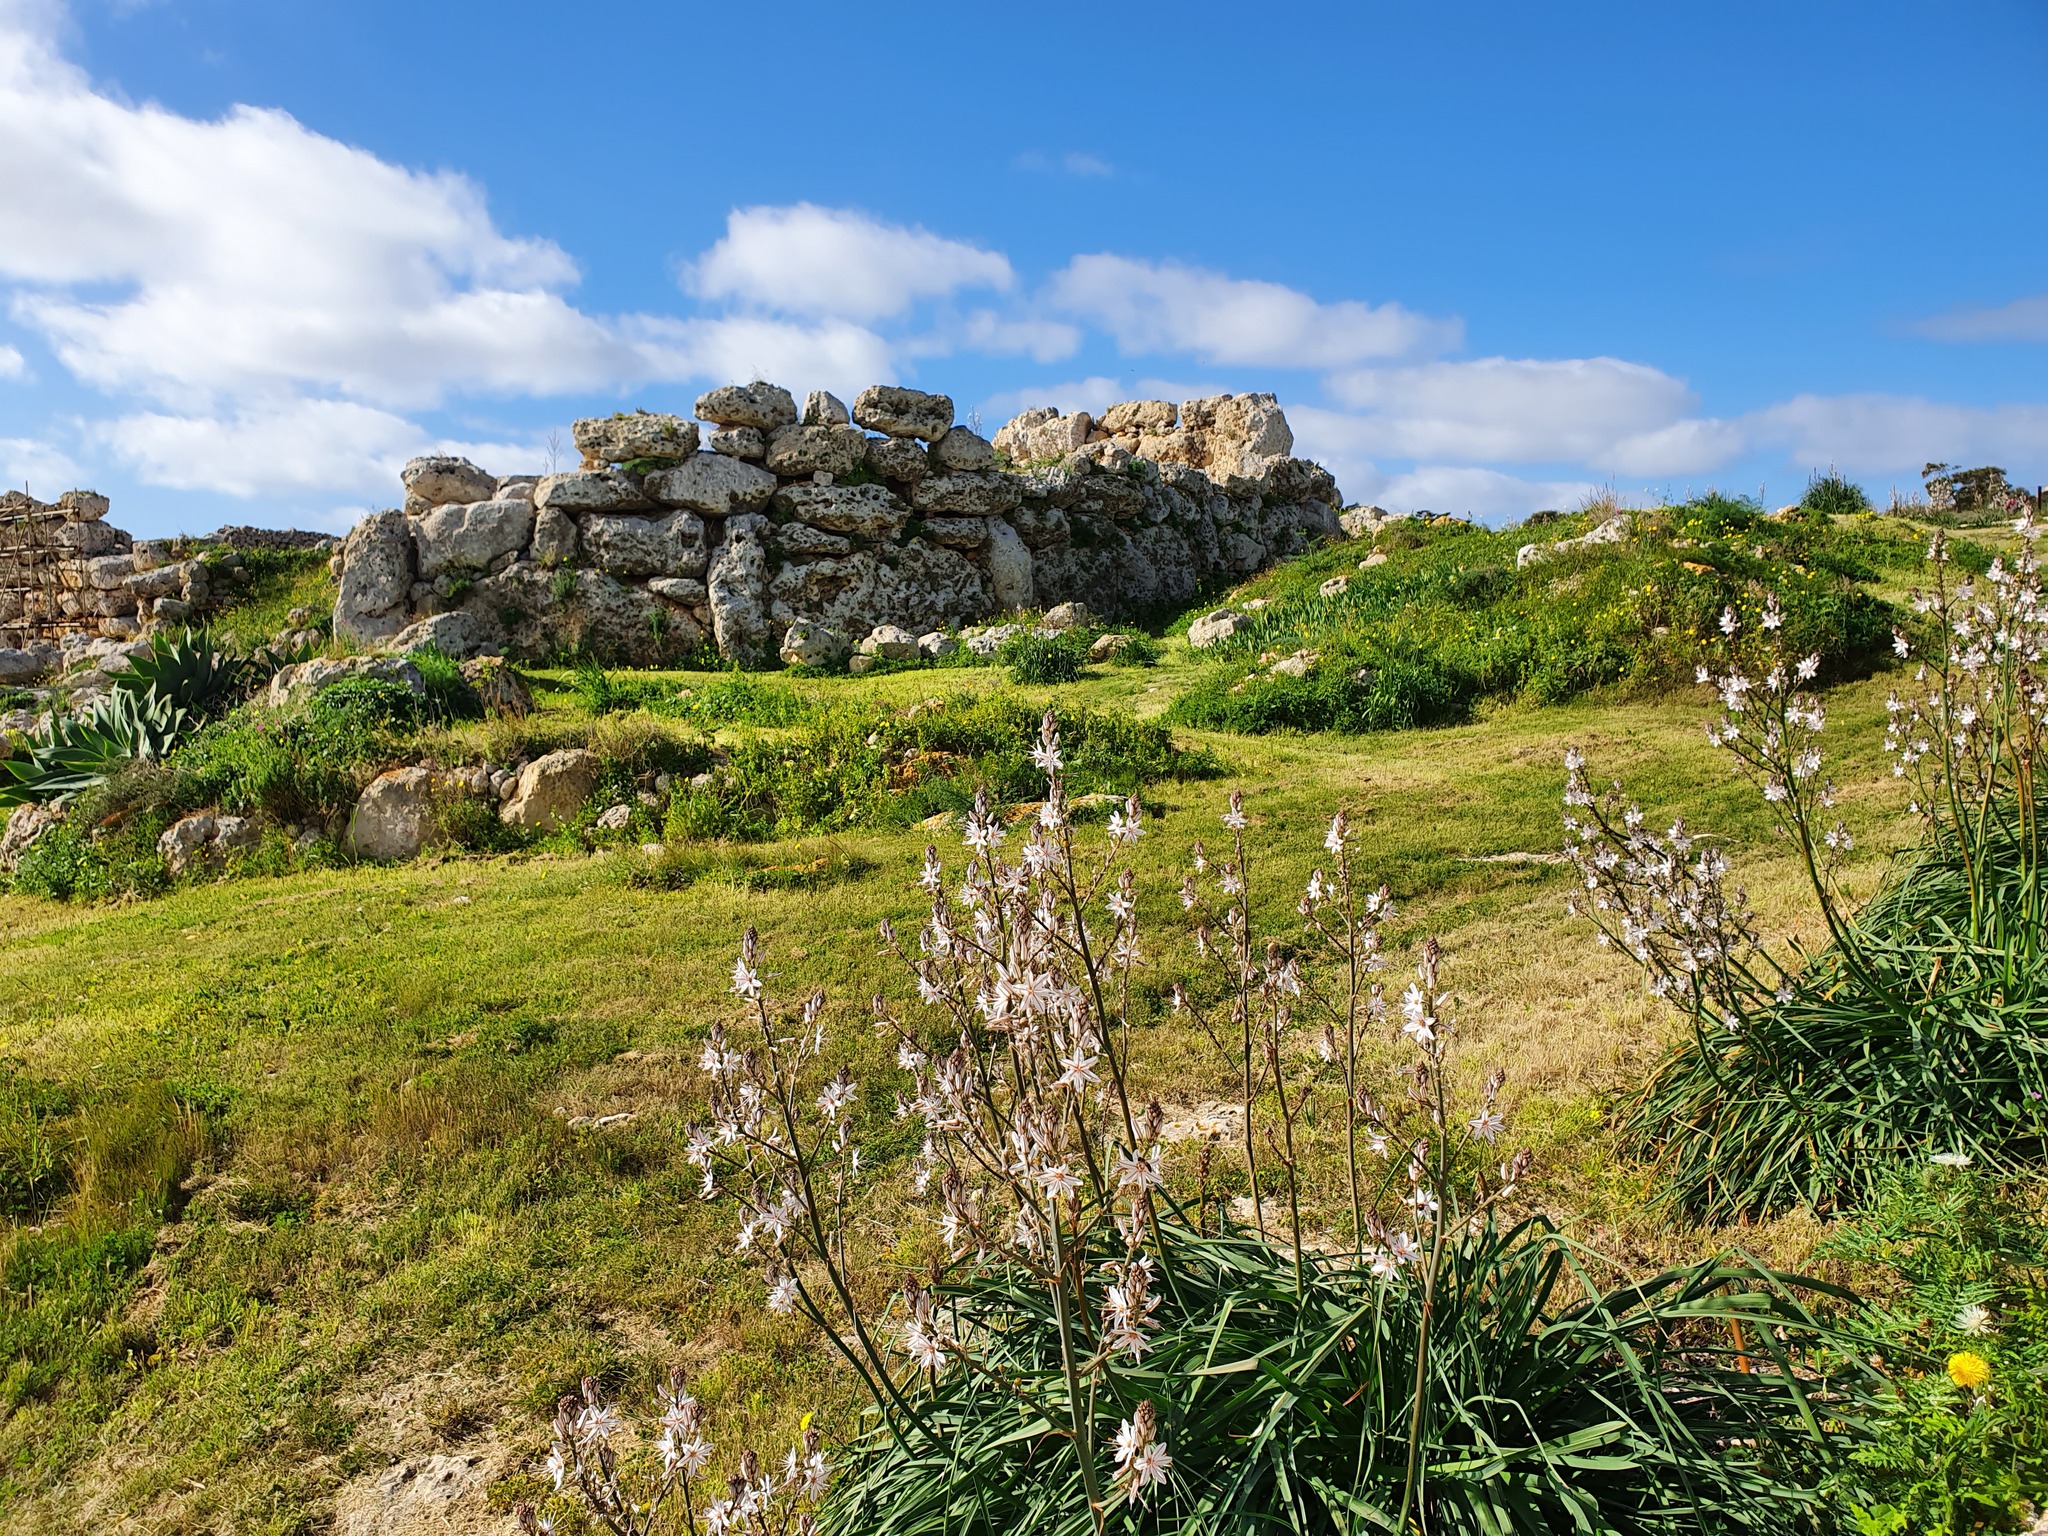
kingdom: Plantae
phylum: Tracheophyta
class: Liliopsida
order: Asparagales
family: Asphodelaceae
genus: Asphodelus
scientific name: Asphodelus ramosus
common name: Silverrod
